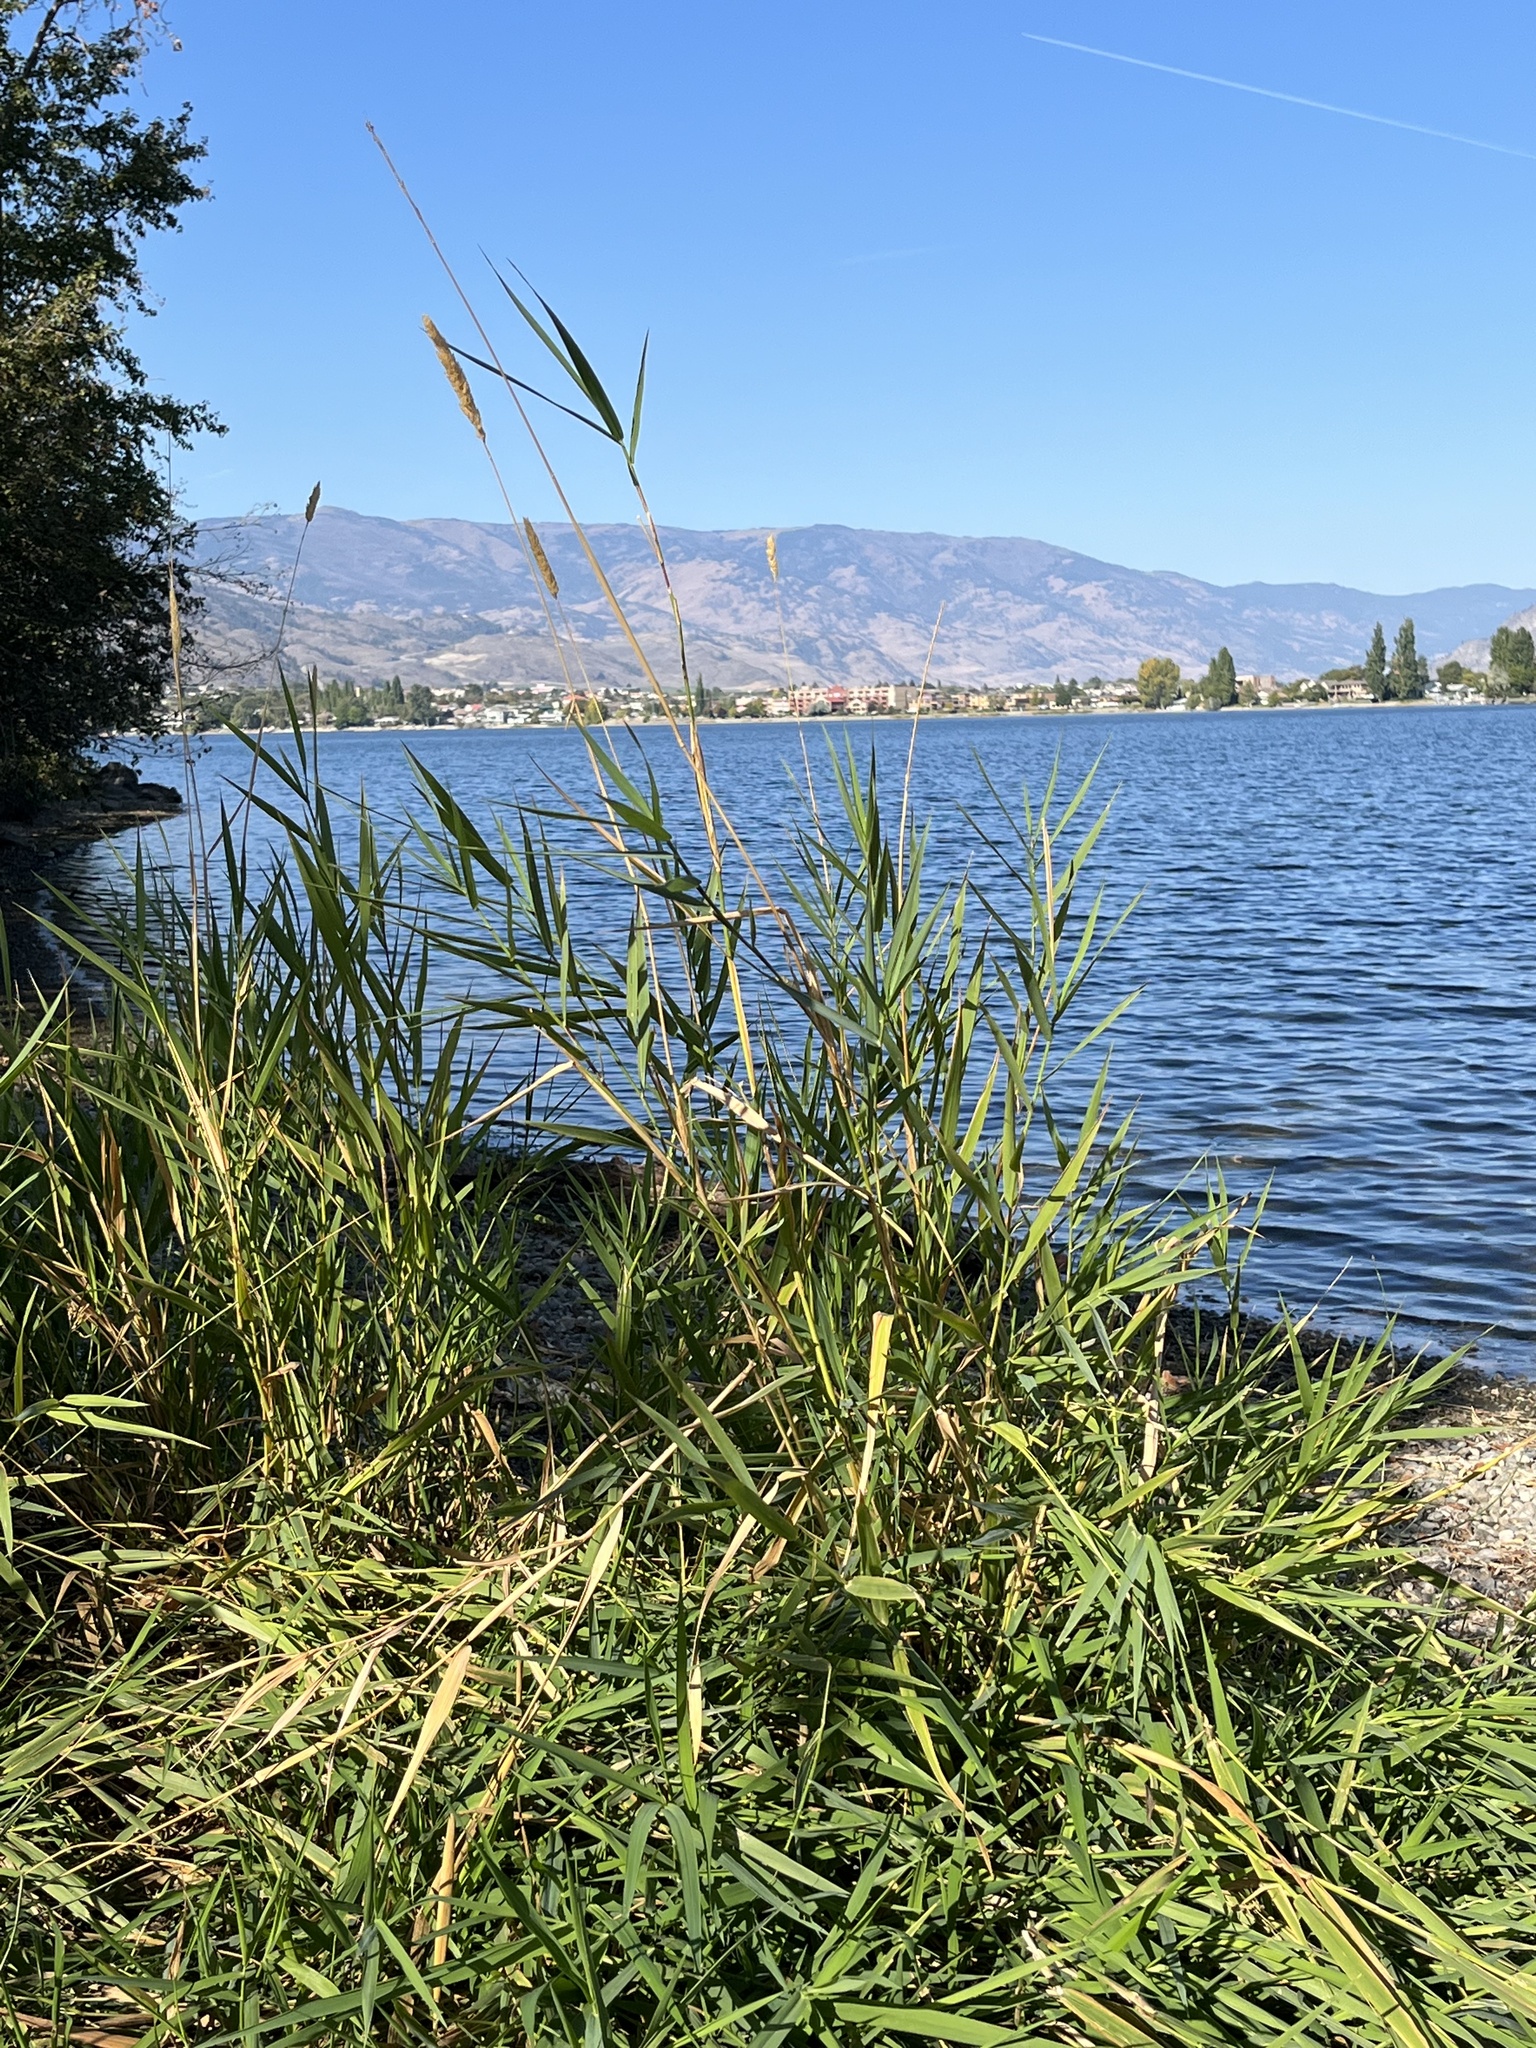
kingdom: Plantae
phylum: Tracheophyta
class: Liliopsida
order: Poales
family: Poaceae
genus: Phalaris
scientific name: Phalaris arundinacea
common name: Reed canary-grass
